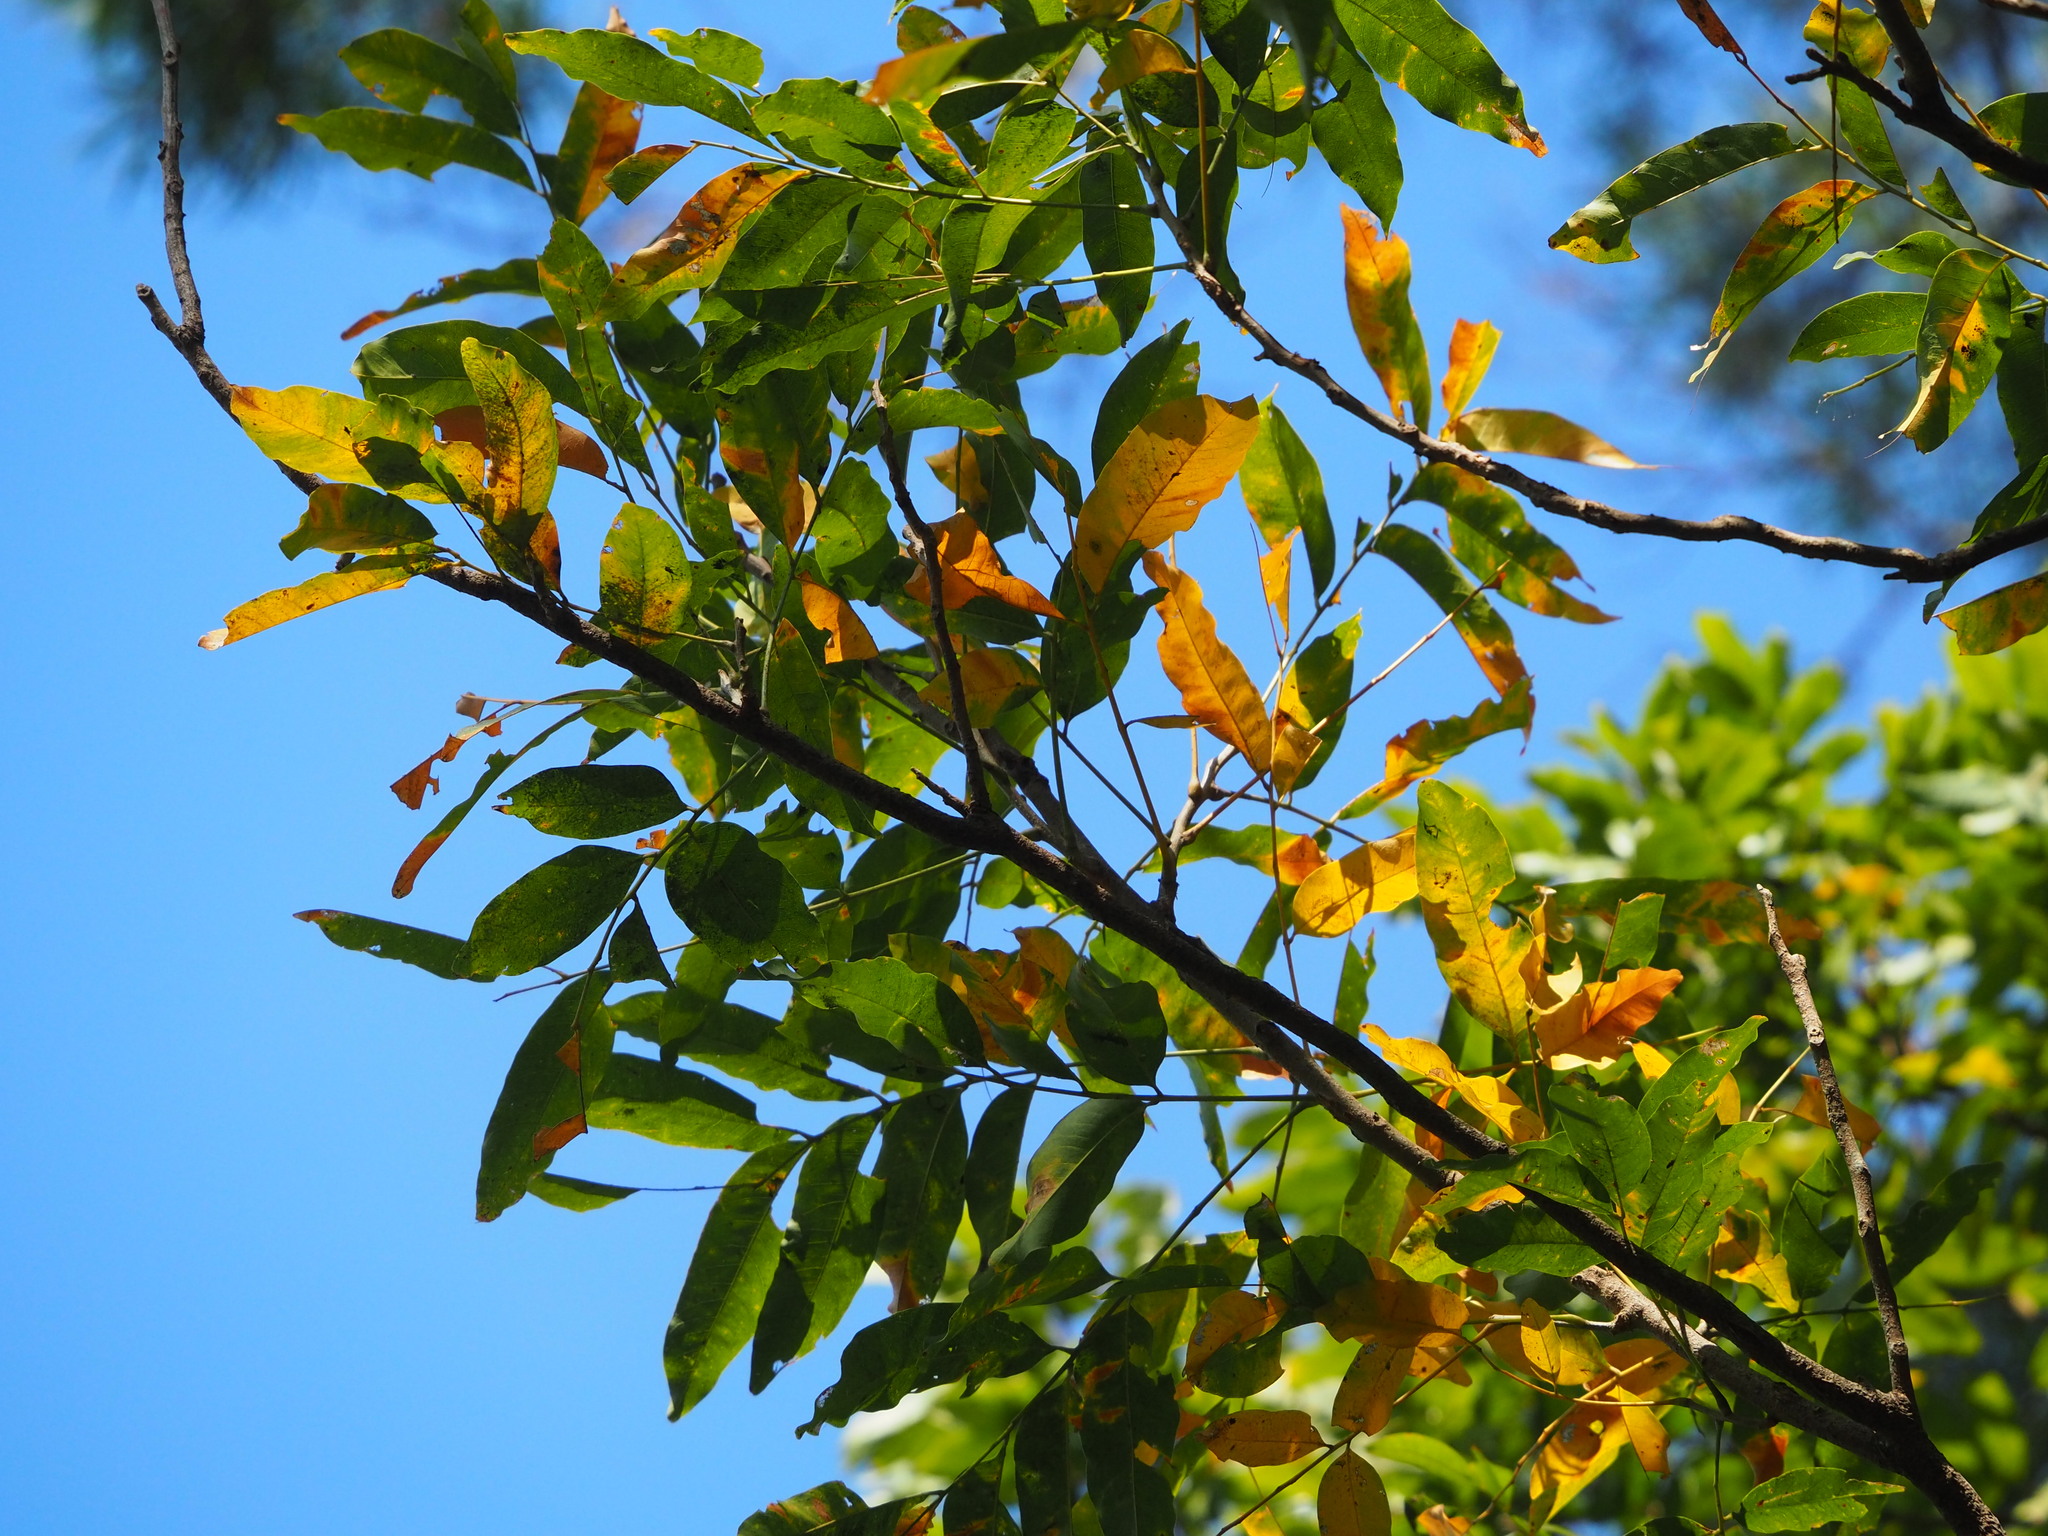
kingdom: Plantae
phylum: Tracheophyta
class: Magnoliopsida
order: Sapindales
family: Sapindaceae
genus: Sapindus
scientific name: Sapindus mukorossi
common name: Chinese soapberry
